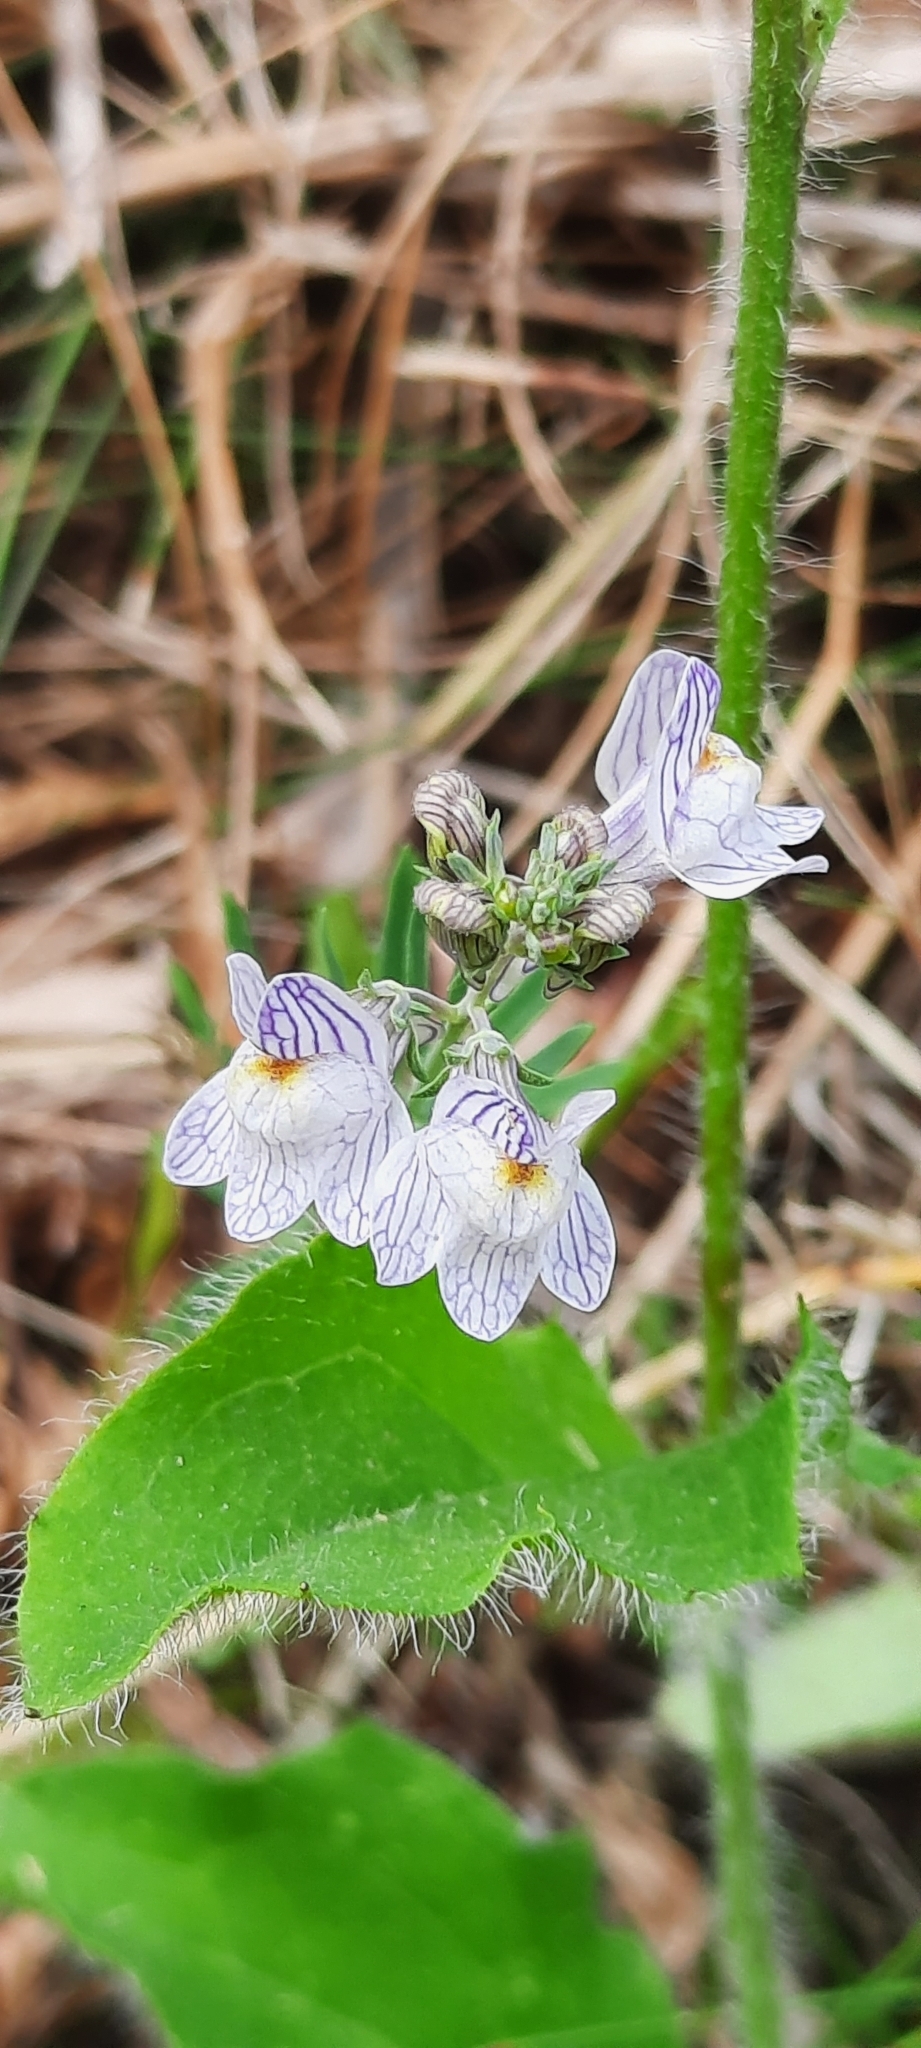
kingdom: Plantae
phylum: Tracheophyta
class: Magnoliopsida
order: Lamiales
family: Plantaginaceae
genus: Linaria
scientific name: Linaria repens
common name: Pale toadflax
